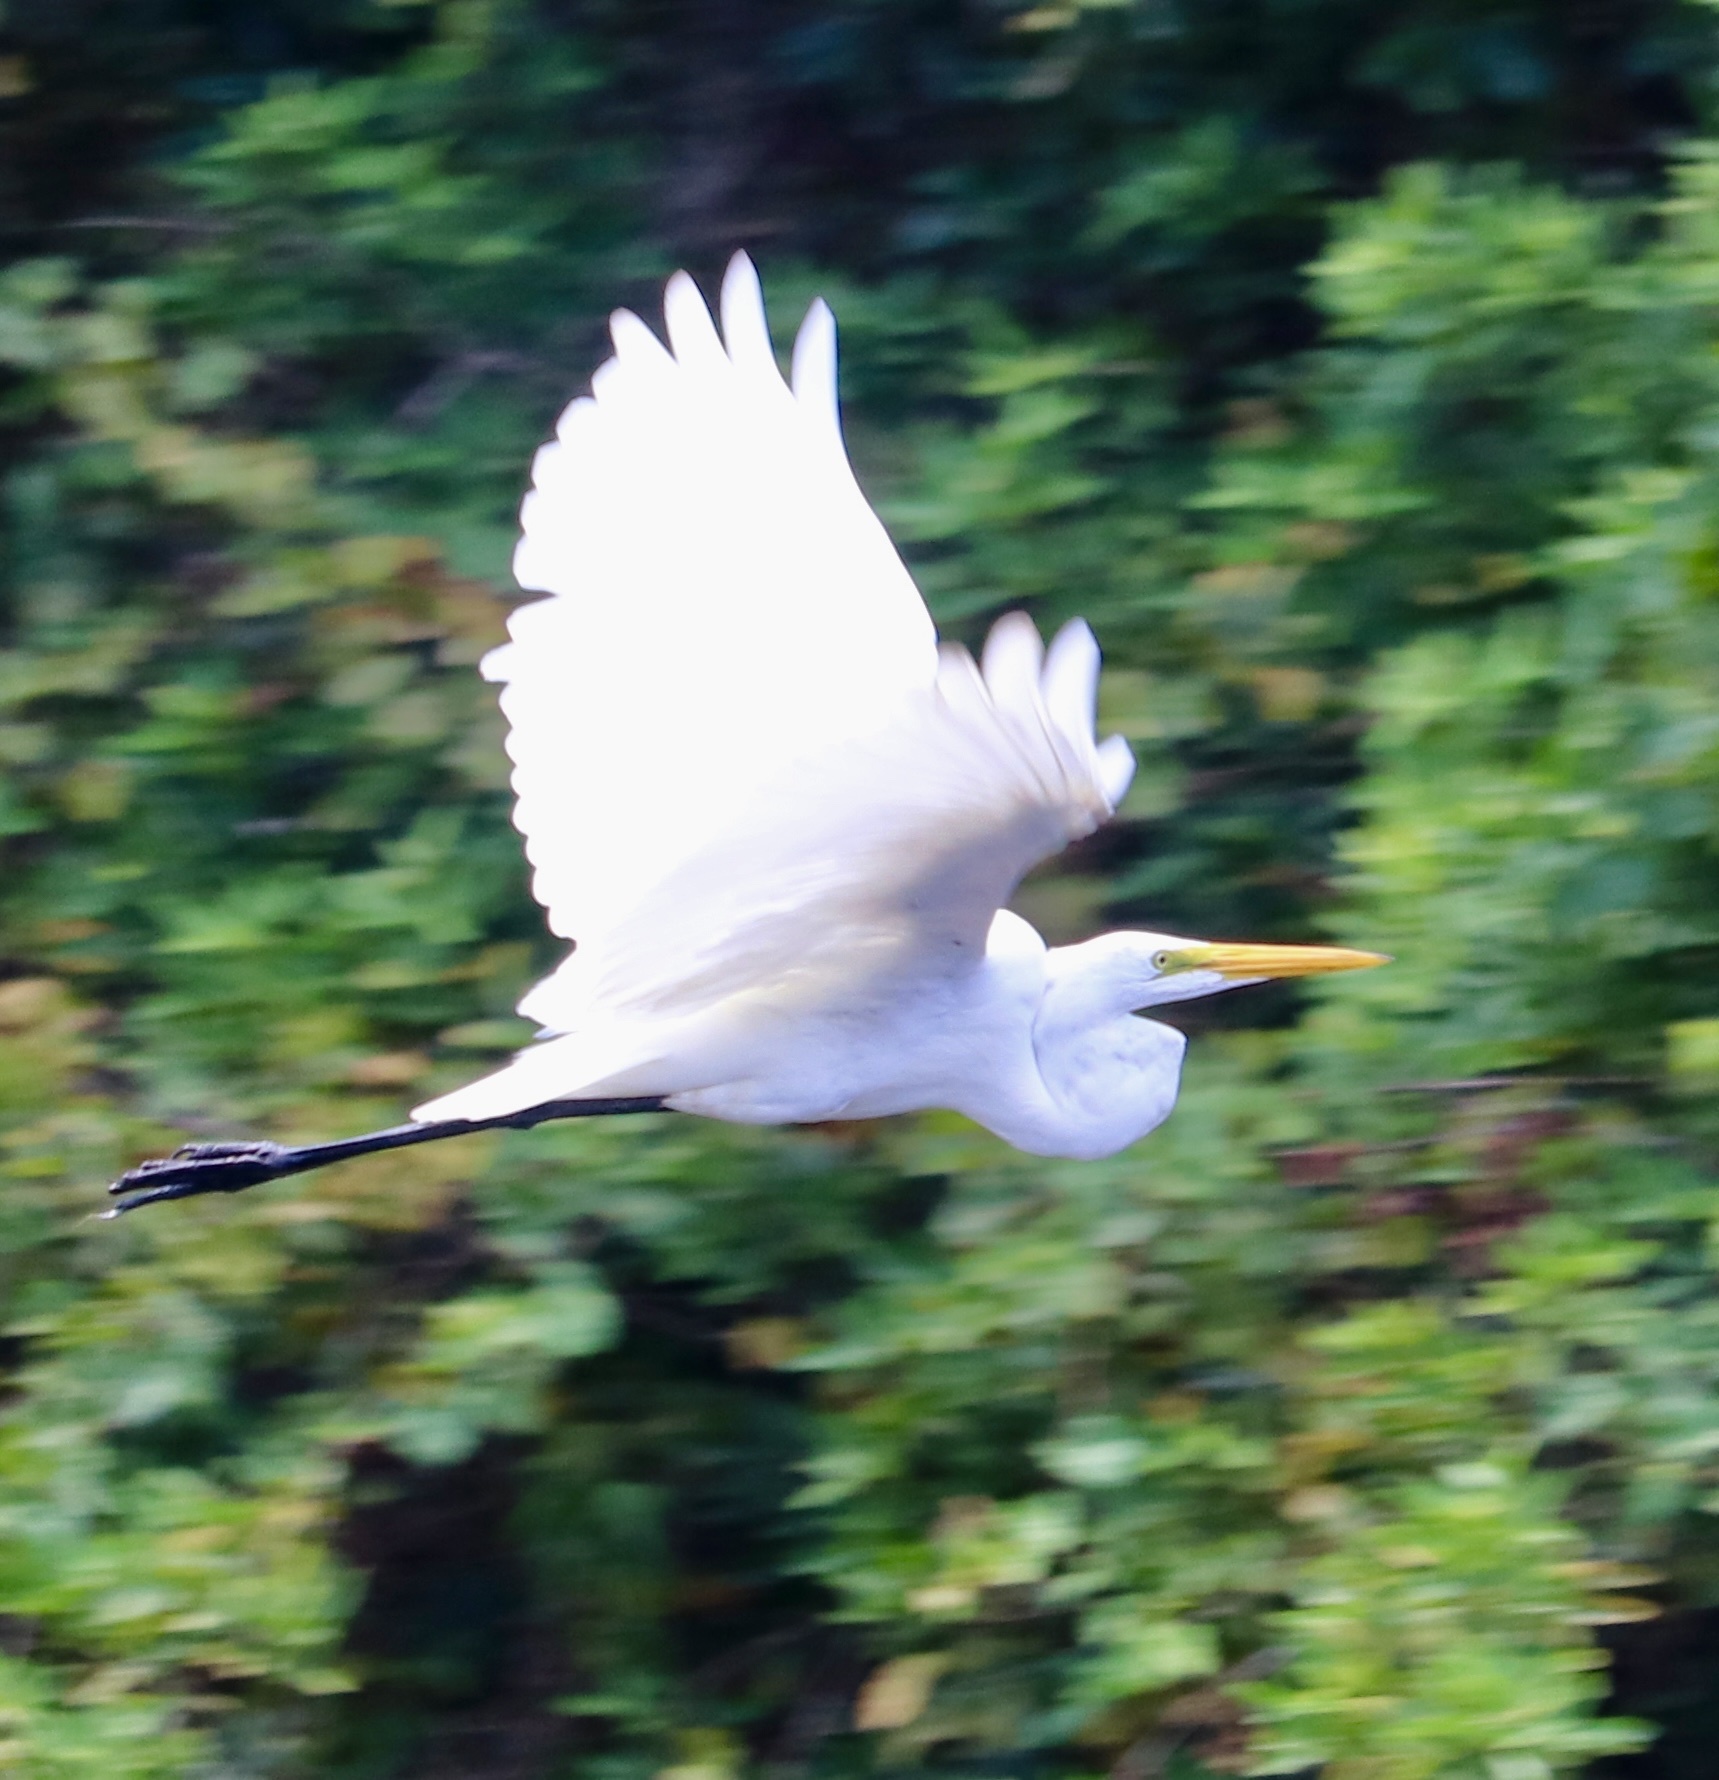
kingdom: Animalia
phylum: Chordata
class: Aves
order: Pelecaniformes
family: Ardeidae
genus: Ardea
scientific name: Ardea alba
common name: Great egret
